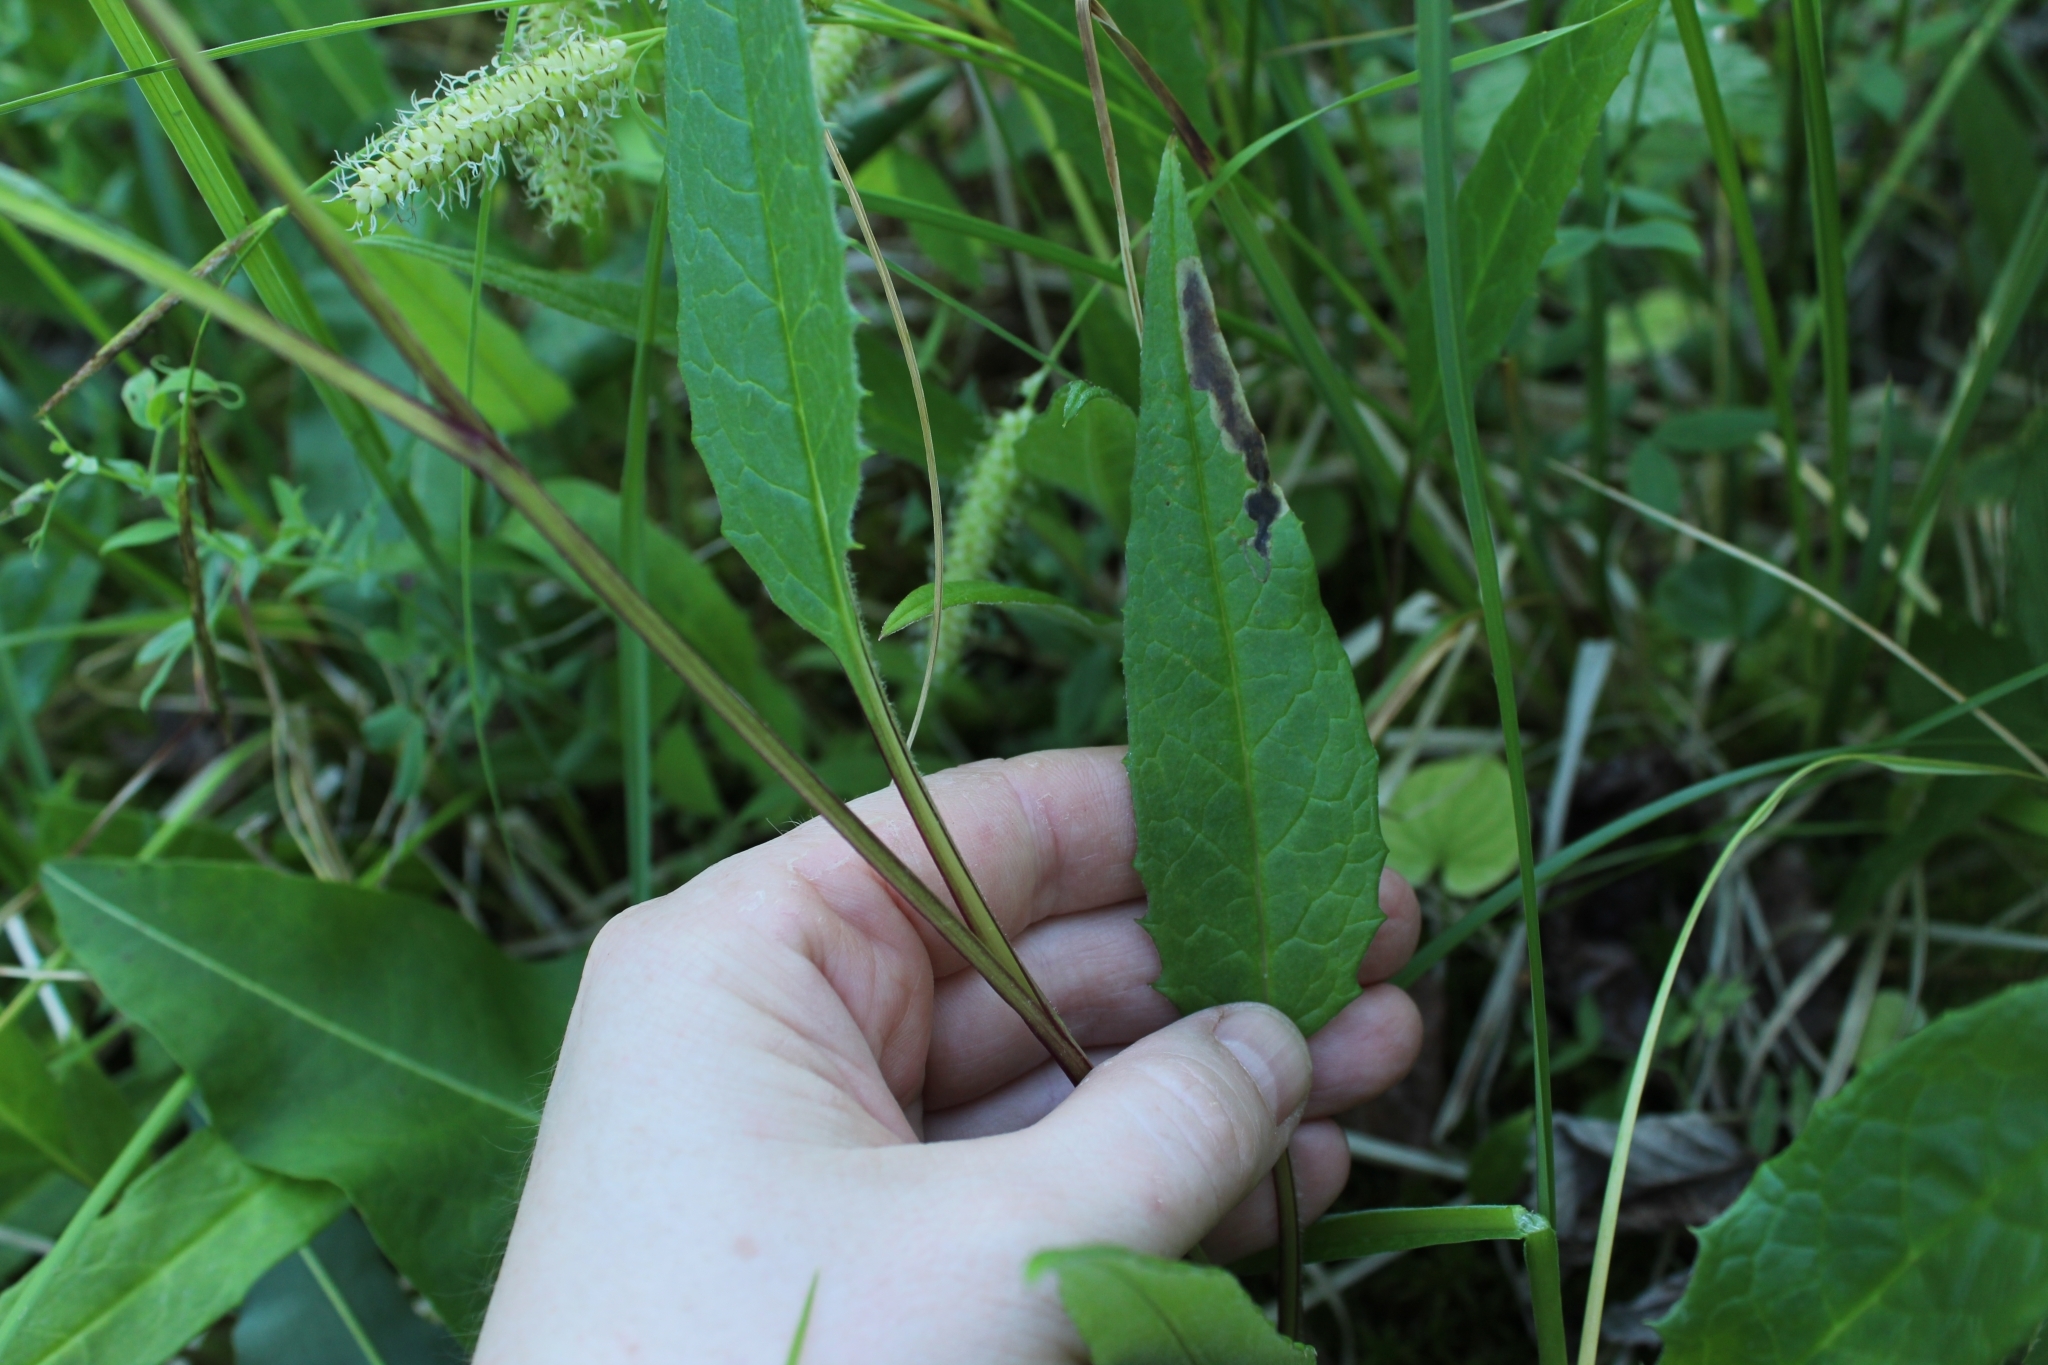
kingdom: Plantae
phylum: Tracheophyta
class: Magnoliopsida
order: Asterales
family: Asteraceae
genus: Saussurea
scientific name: Saussurea alpina
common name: Alpine saw-wort
